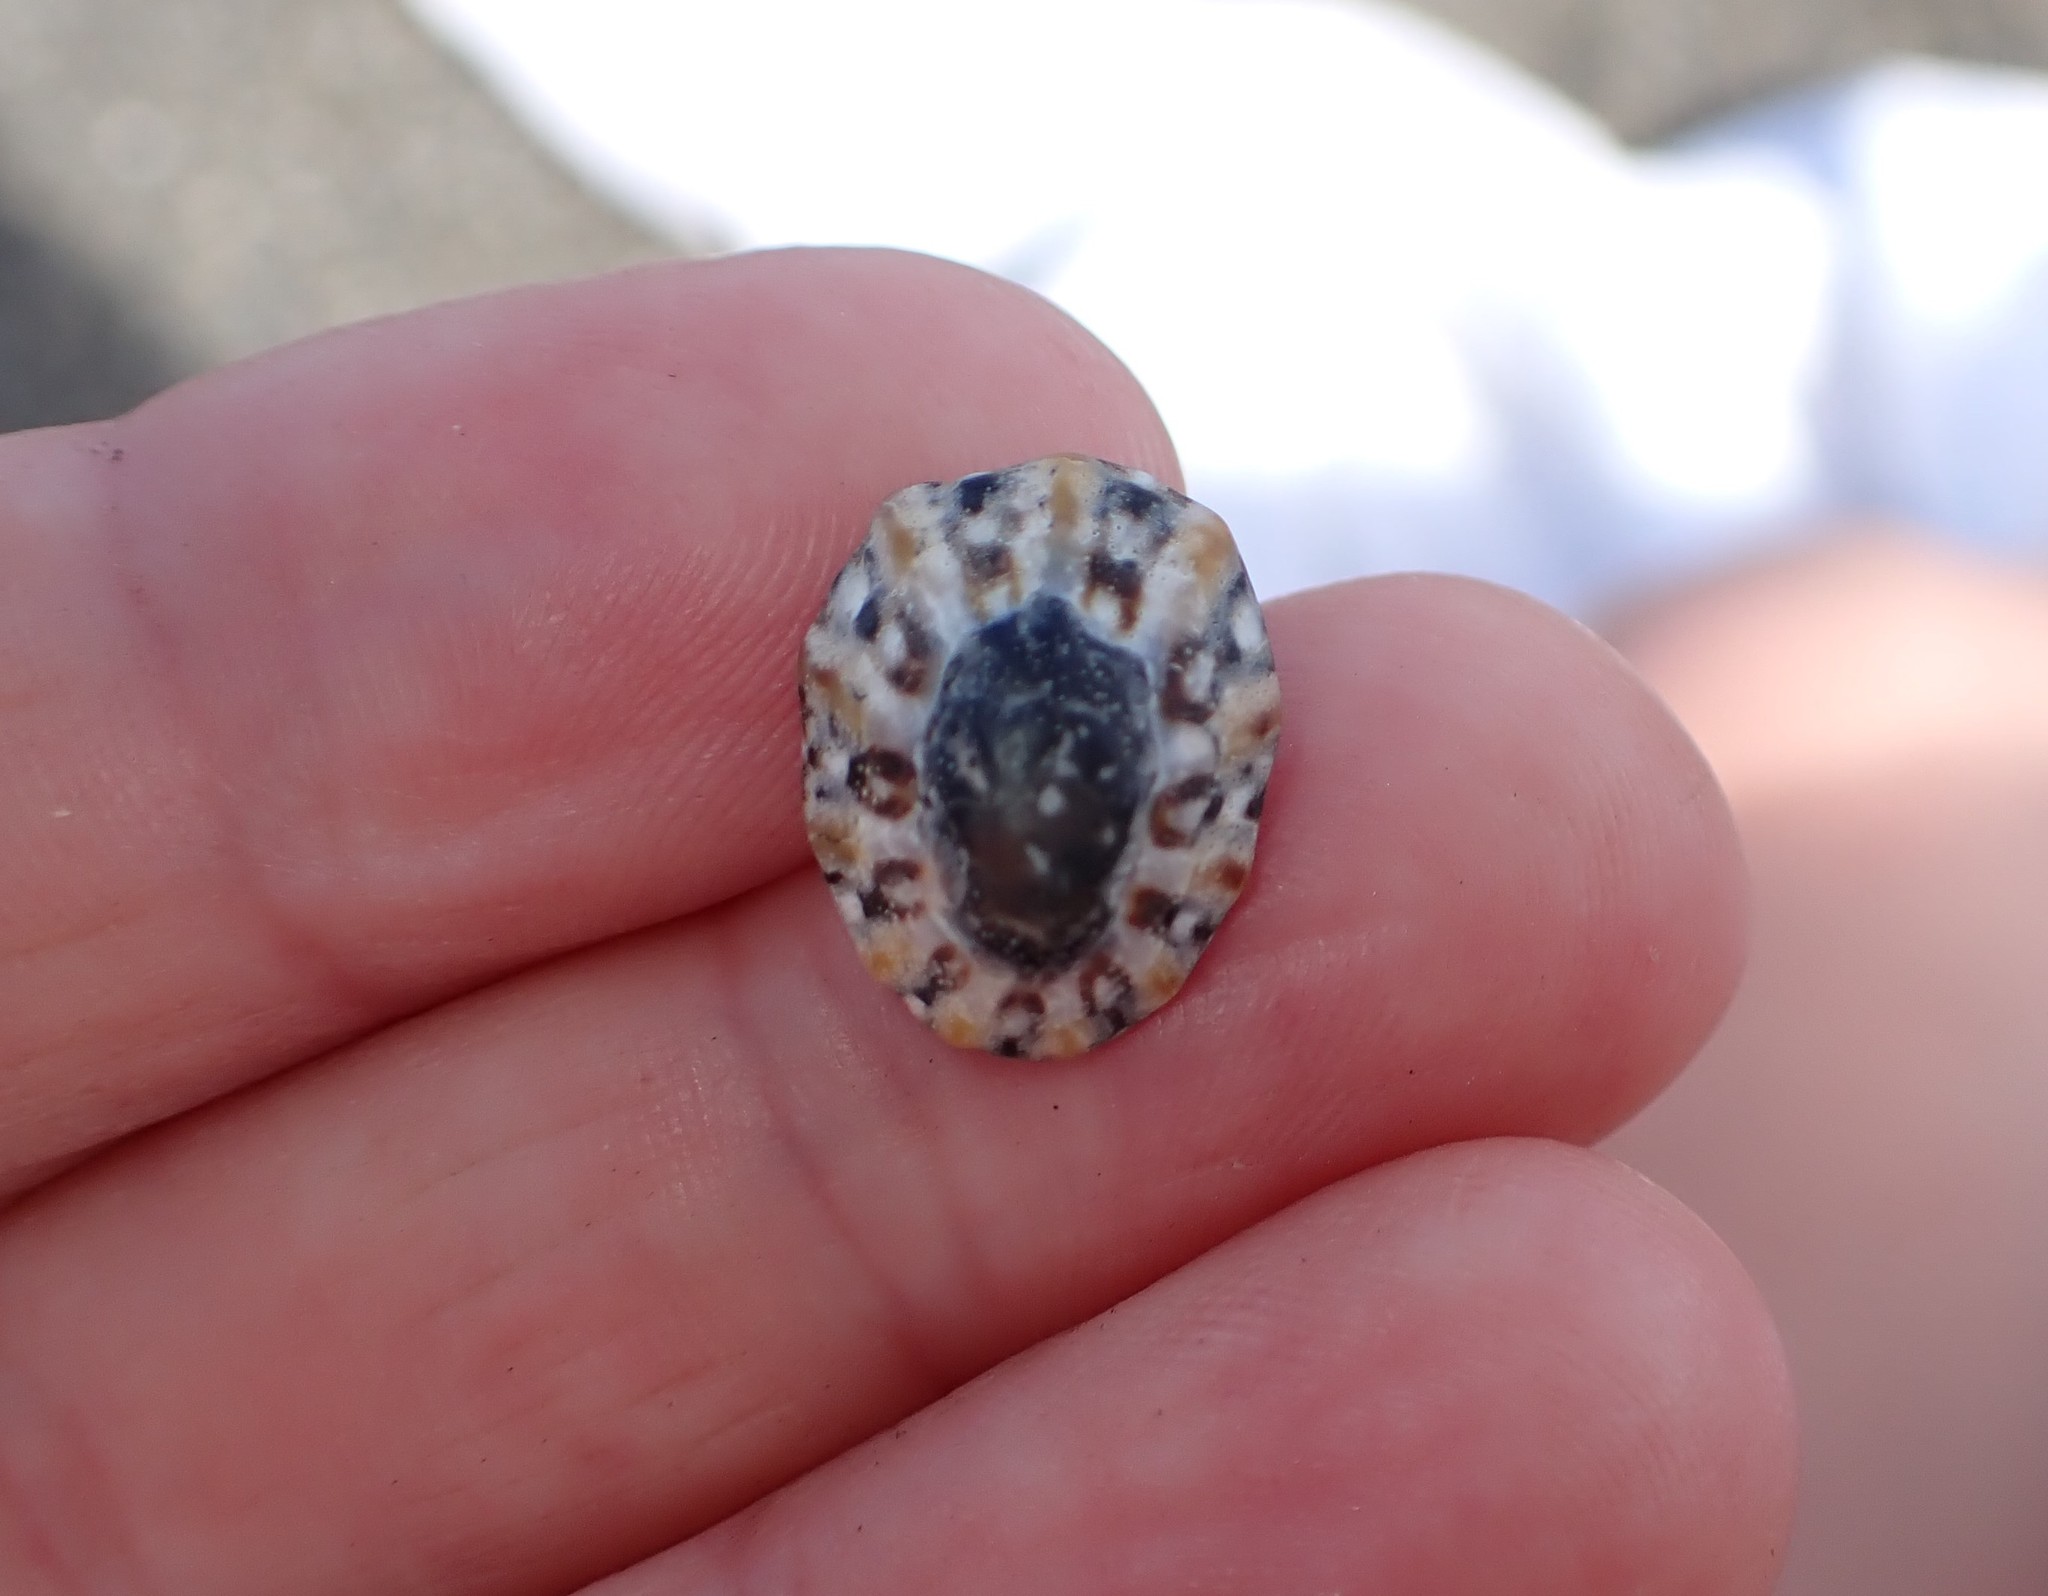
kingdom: Animalia
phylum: Mollusca
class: Gastropoda
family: Nacellidae
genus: Cellana
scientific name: Cellana ornata
